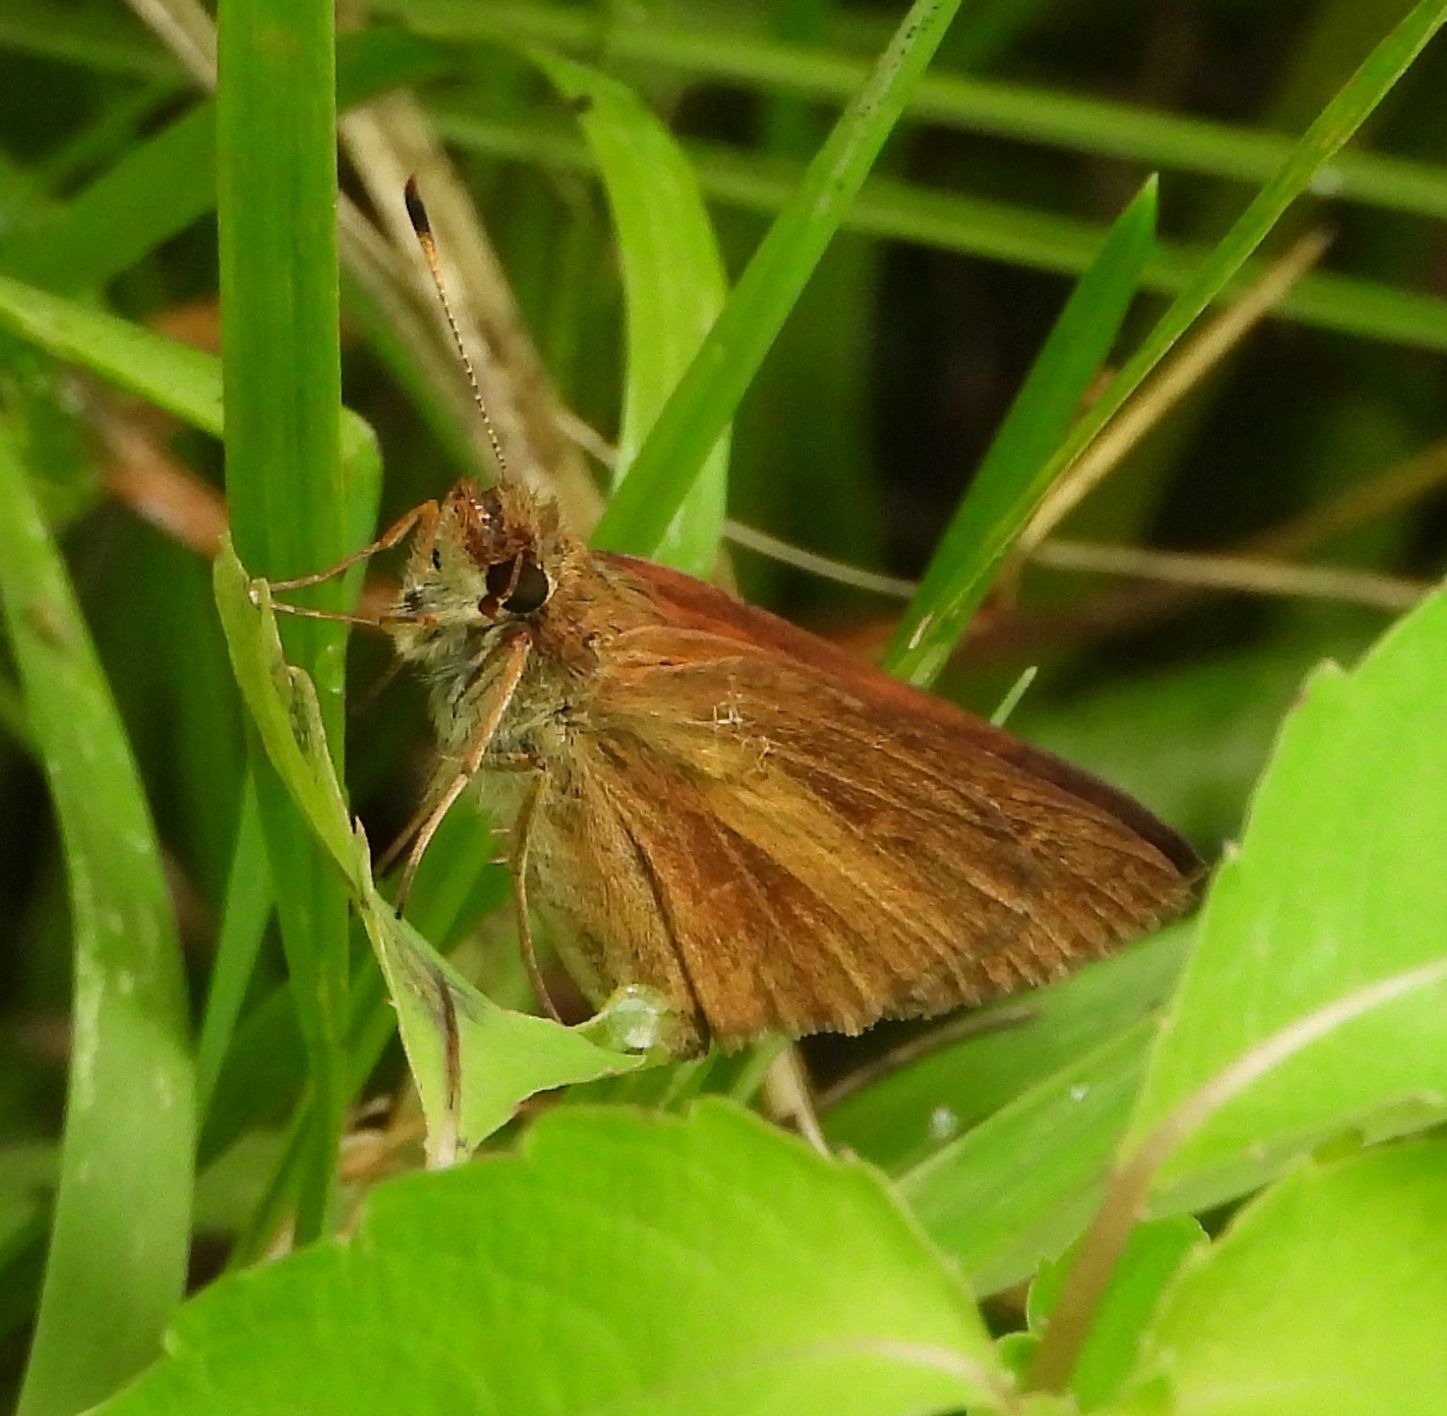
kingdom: Animalia
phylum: Arthropoda
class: Insecta
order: Lepidoptera
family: Hesperiidae
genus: Poanes
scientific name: Poanes viator
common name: Broad-winged skipper
